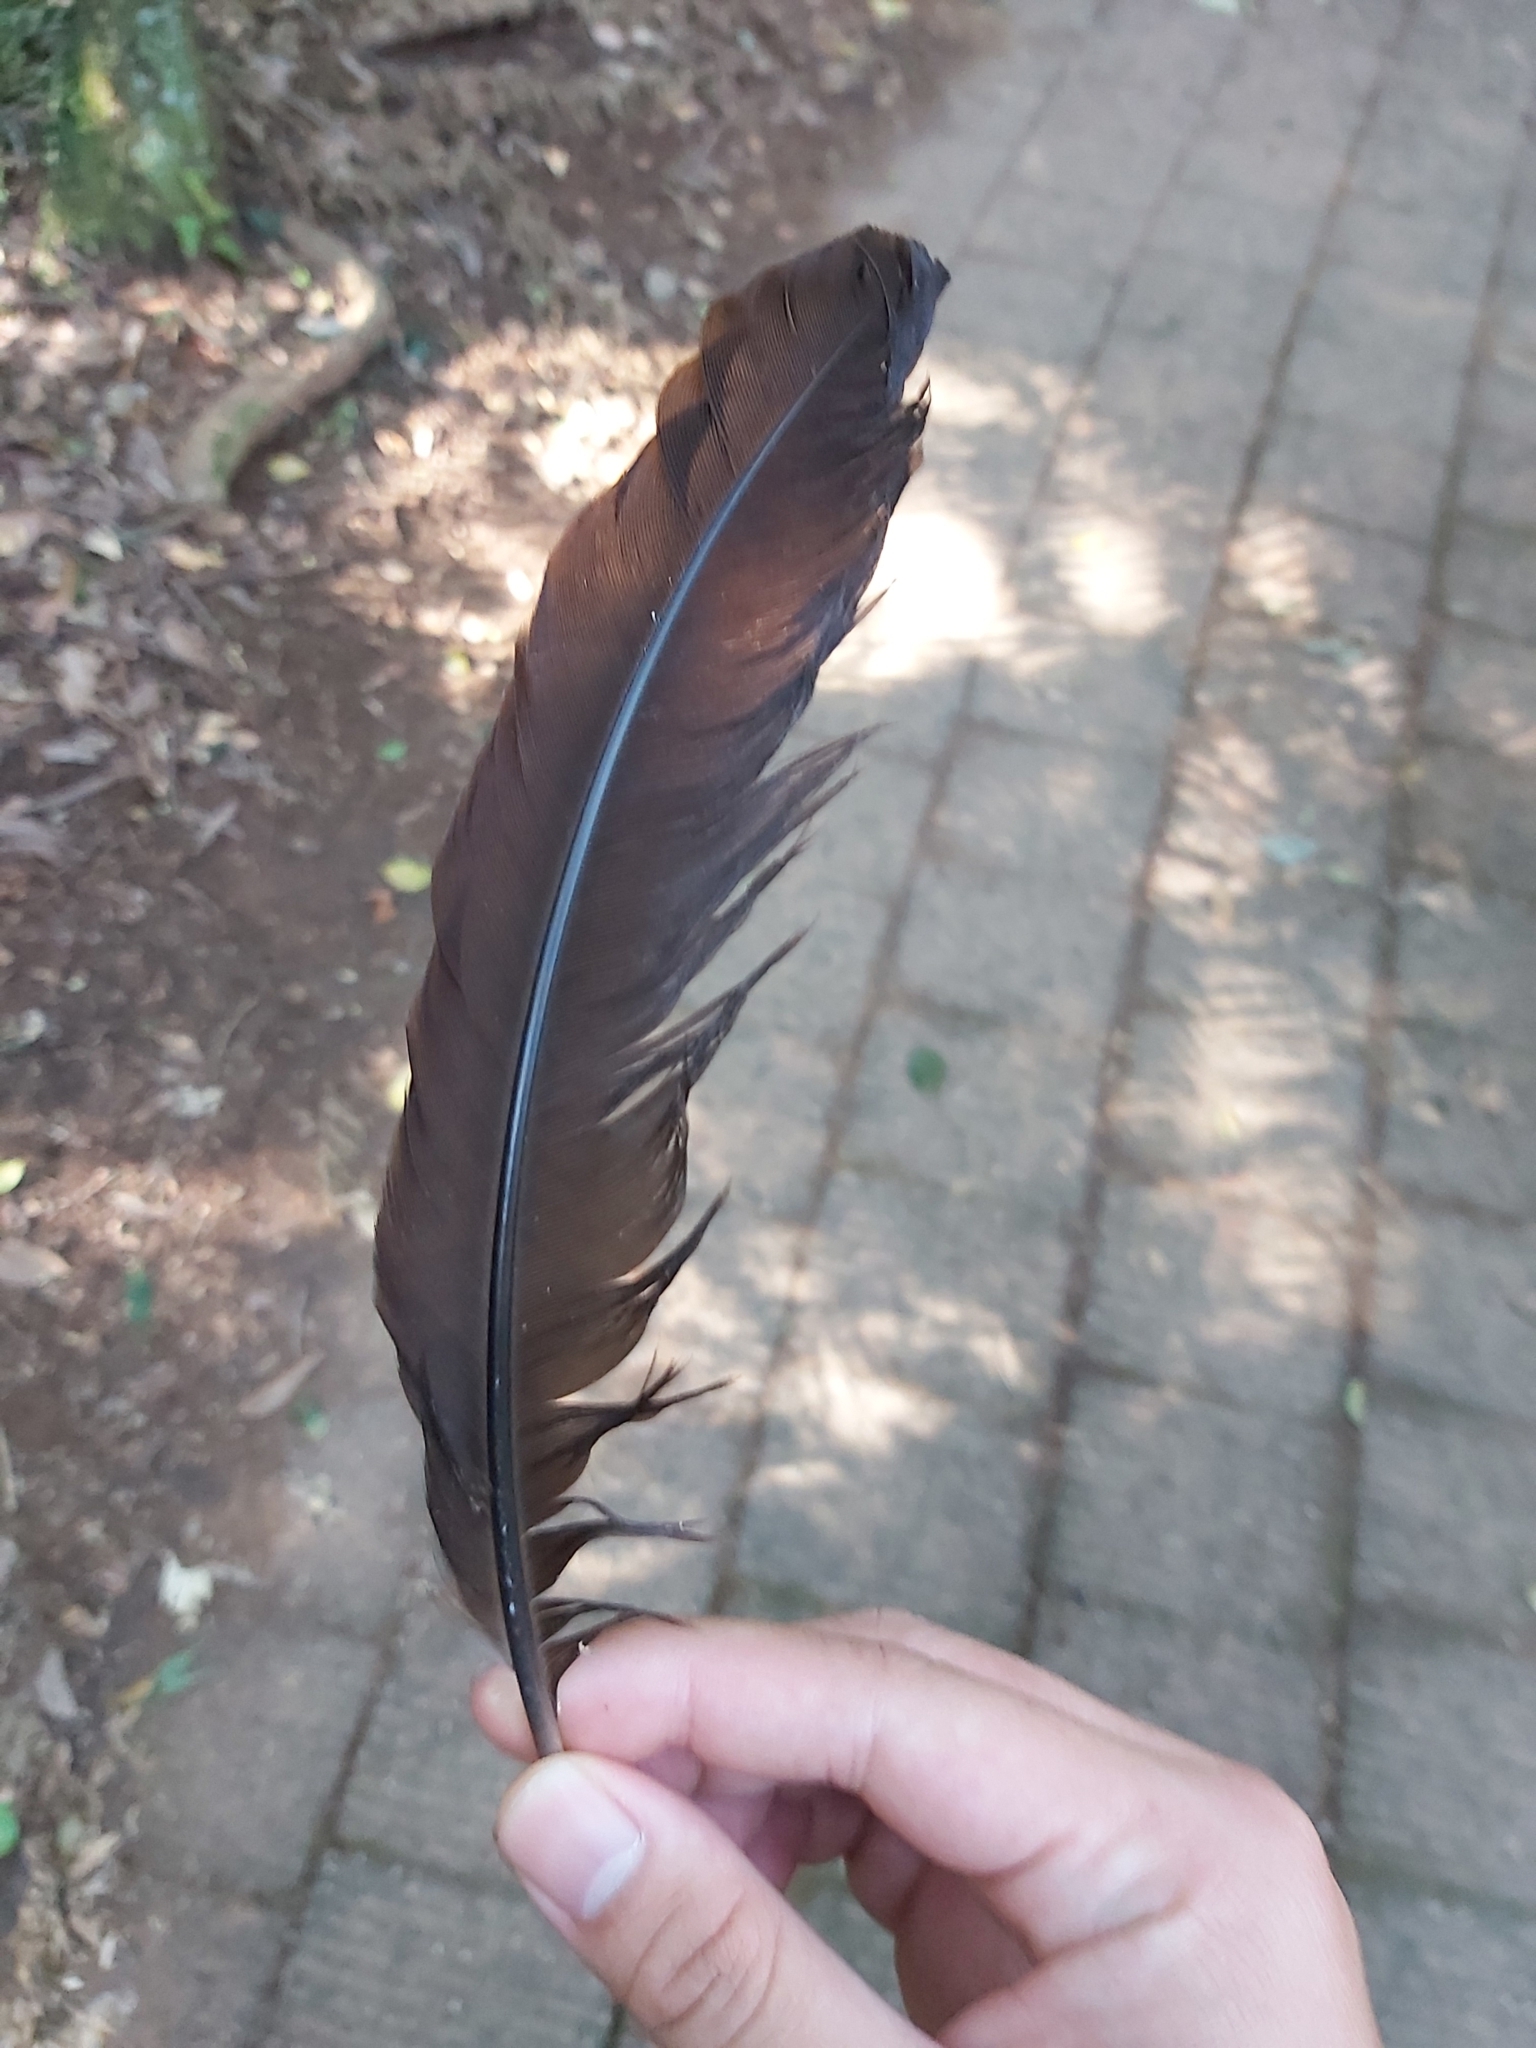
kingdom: Animalia
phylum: Chordata
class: Aves
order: Passeriformes
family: Menuridae
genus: Menura
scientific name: Menura novaehollandiae
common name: Superb lyrebird
